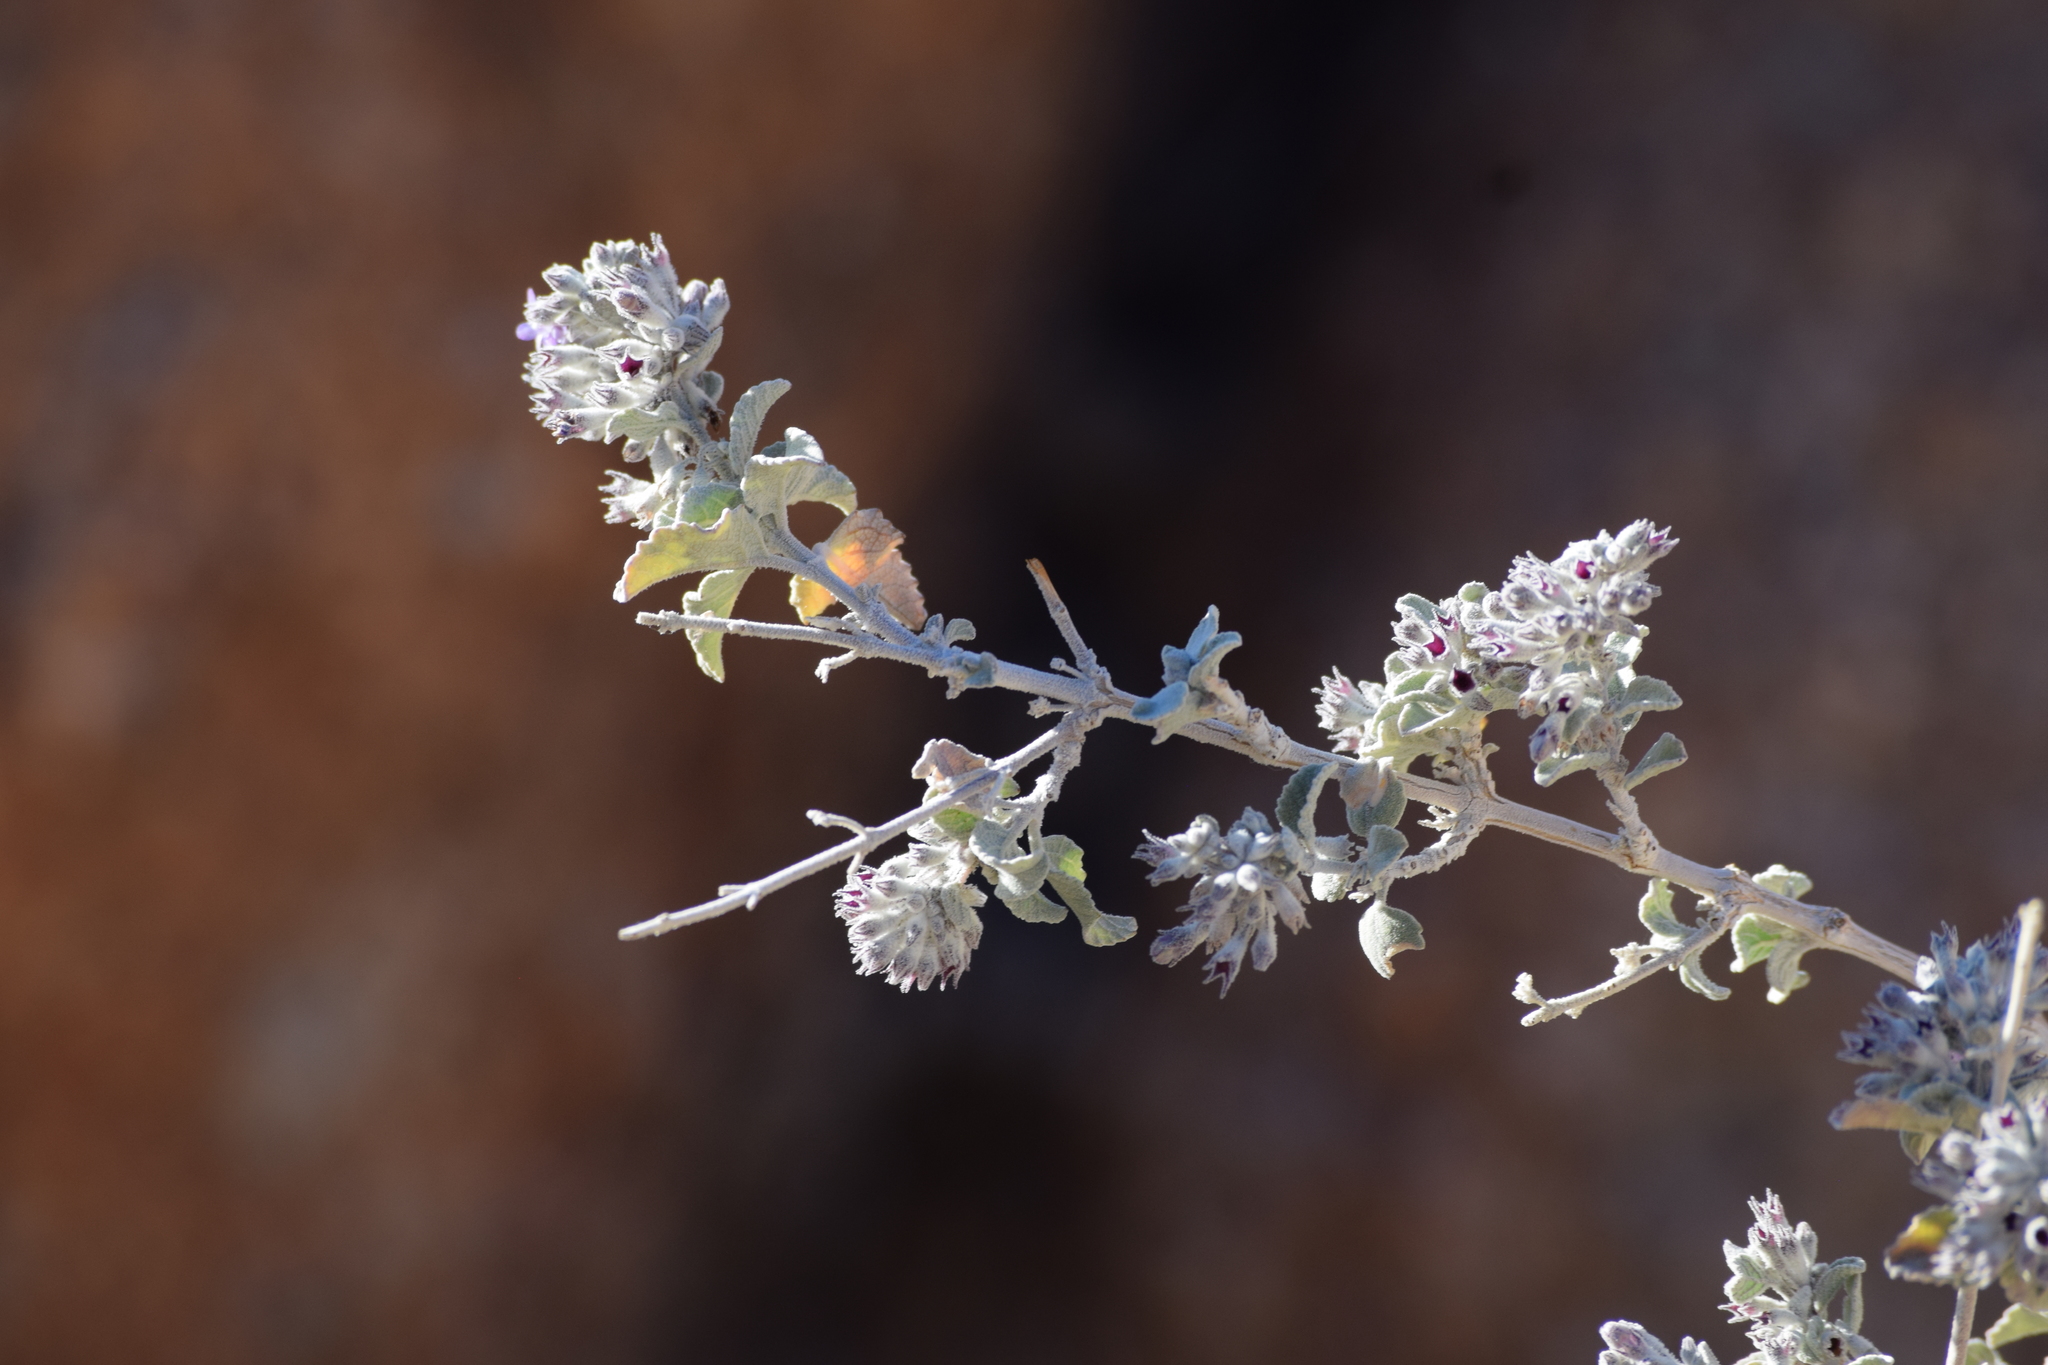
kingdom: Plantae
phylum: Tracheophyta
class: Magnoliopsida
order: Lamiales
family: Lamiaceae
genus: Condea
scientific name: Condea emoryi
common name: Chia
